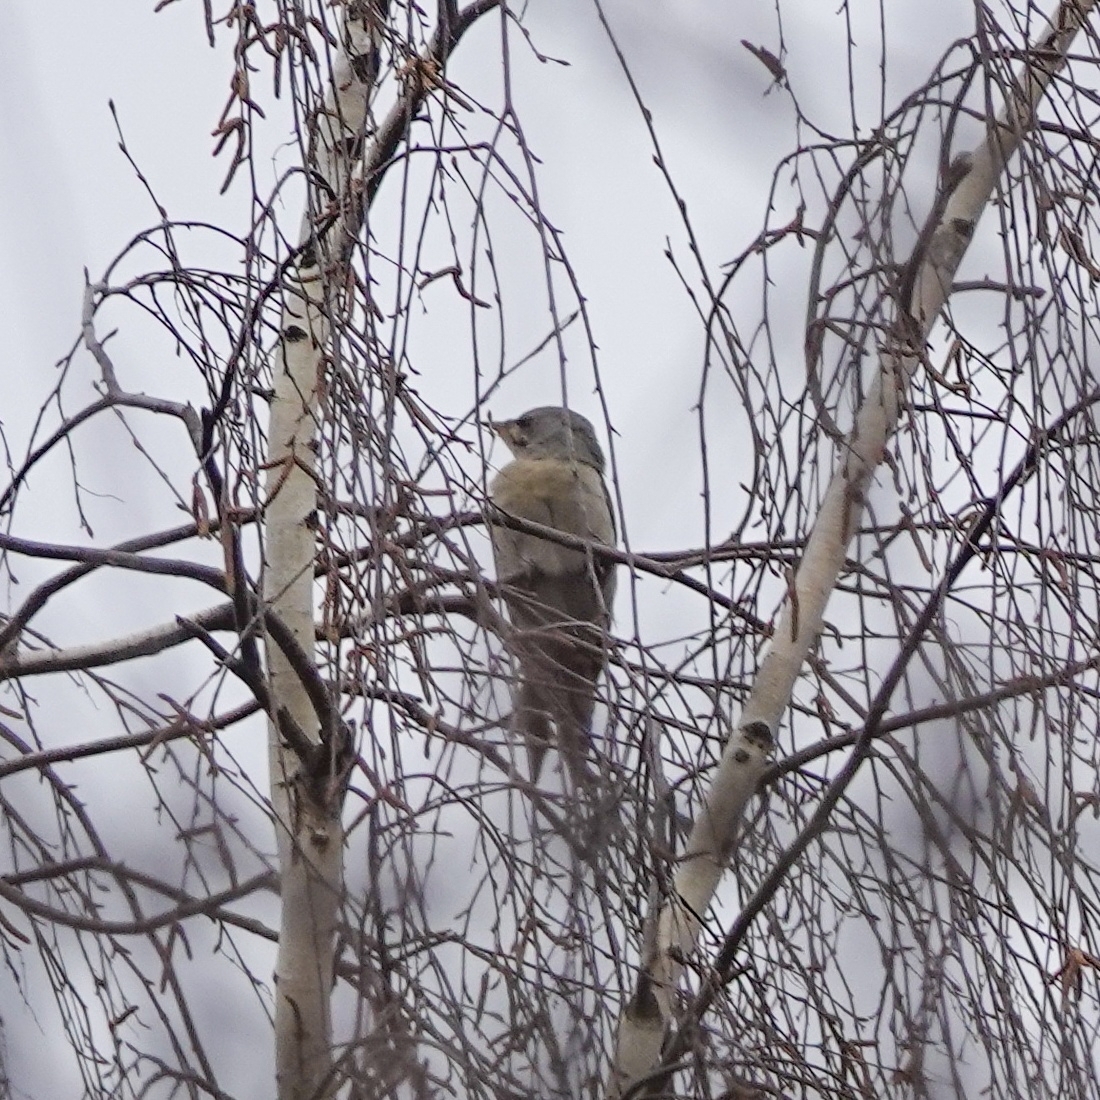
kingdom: Animalia
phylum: Chordata
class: Aves
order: Piciformes
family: Picidae
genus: Picus
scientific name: Picus canus
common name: Grey-headed woodpecker
